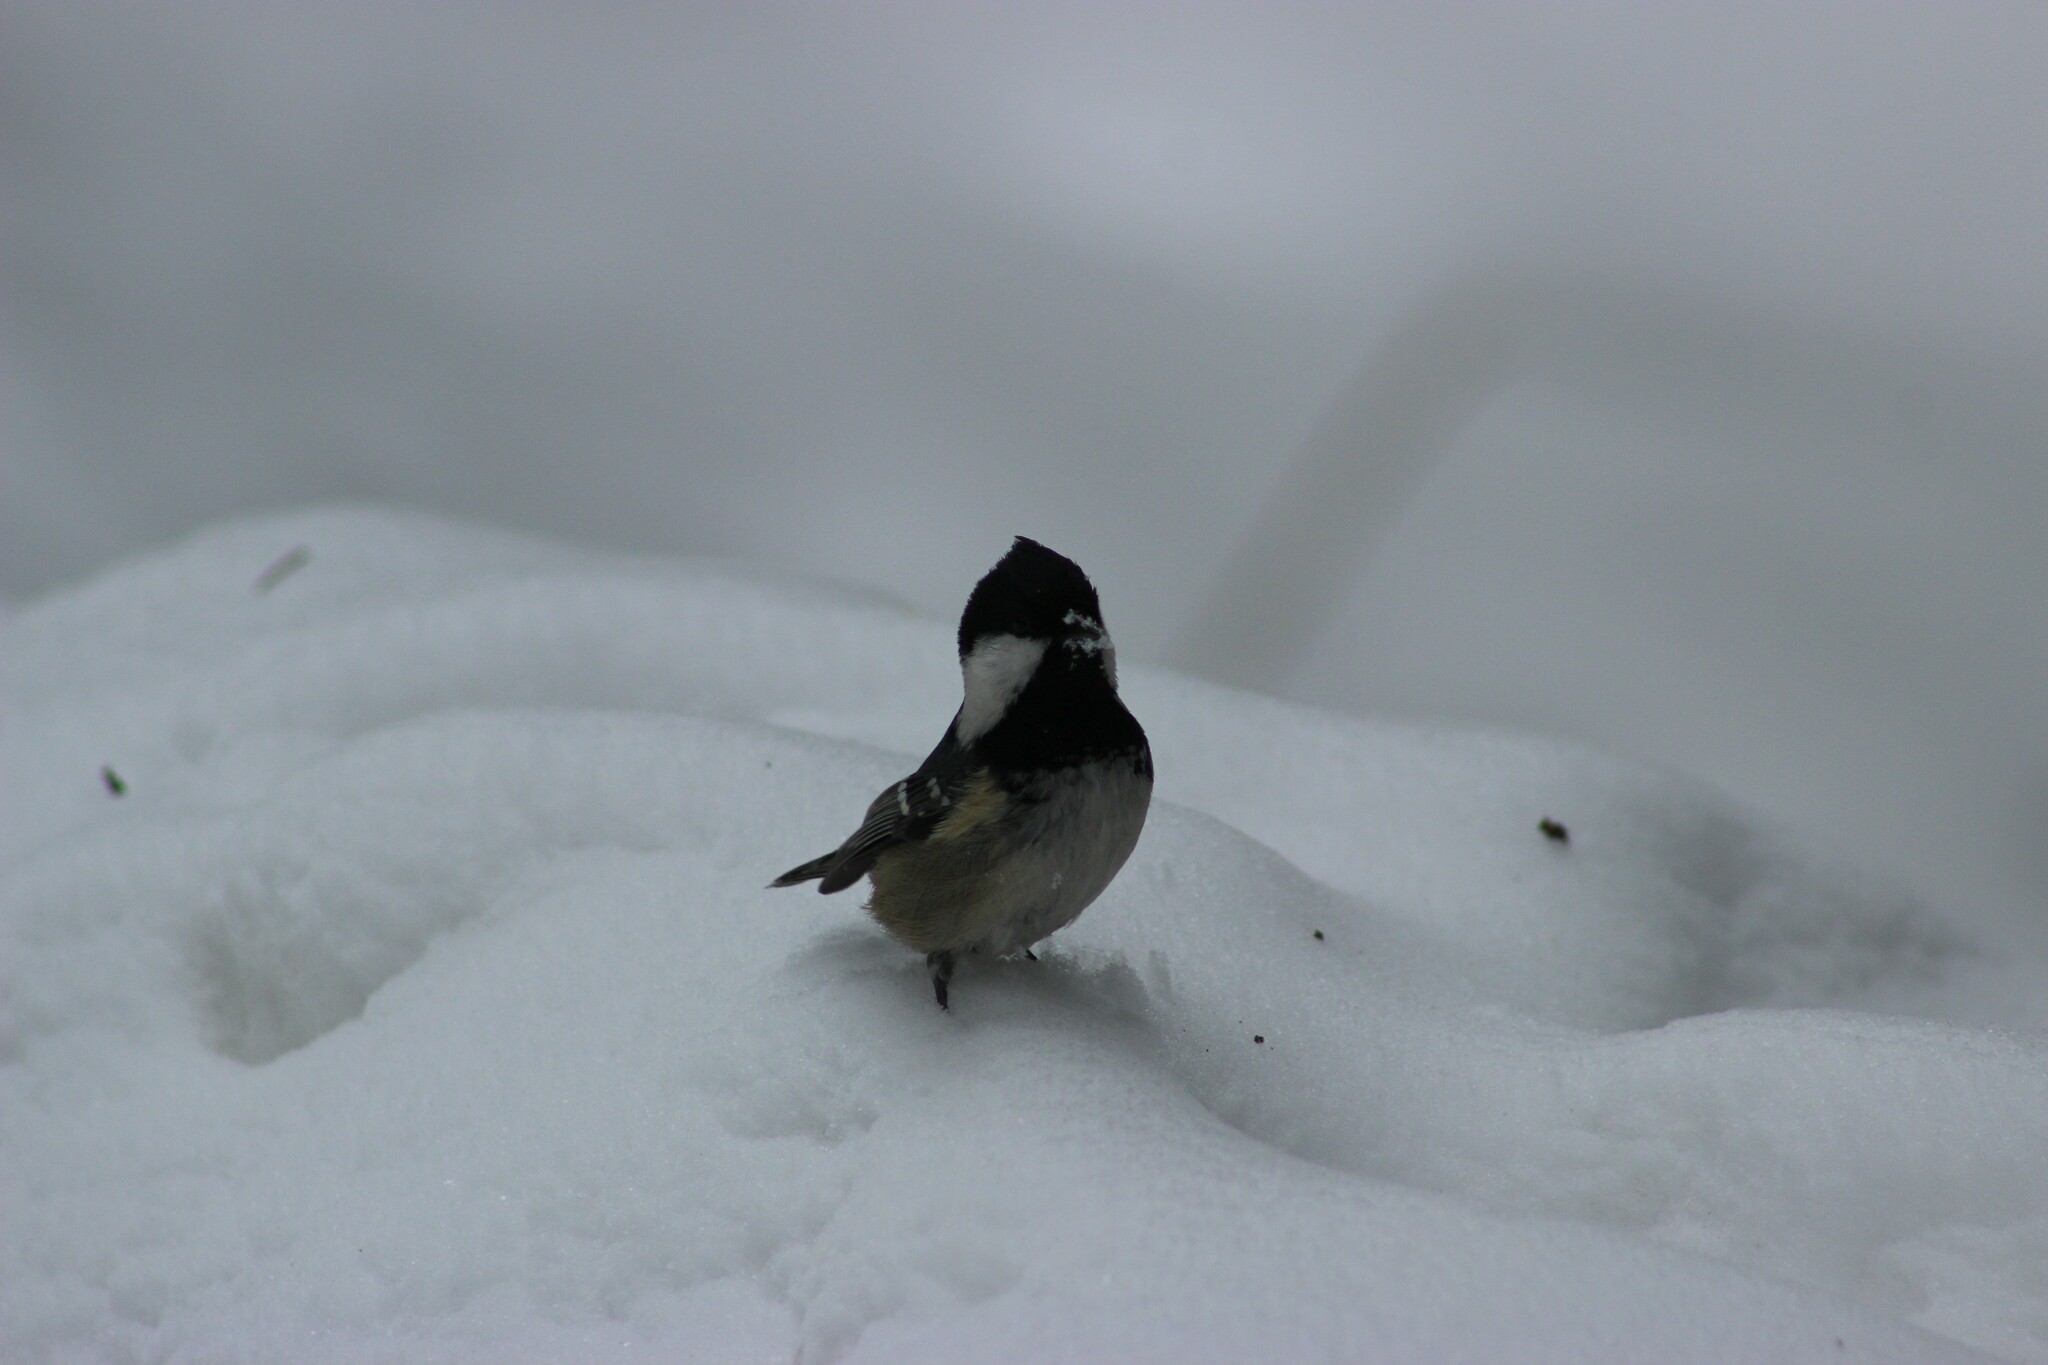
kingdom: Animalia
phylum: Chordata
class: Aves
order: Passeriformes
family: Paridae
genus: Periparus
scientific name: Periparus ater
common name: Coal tit
